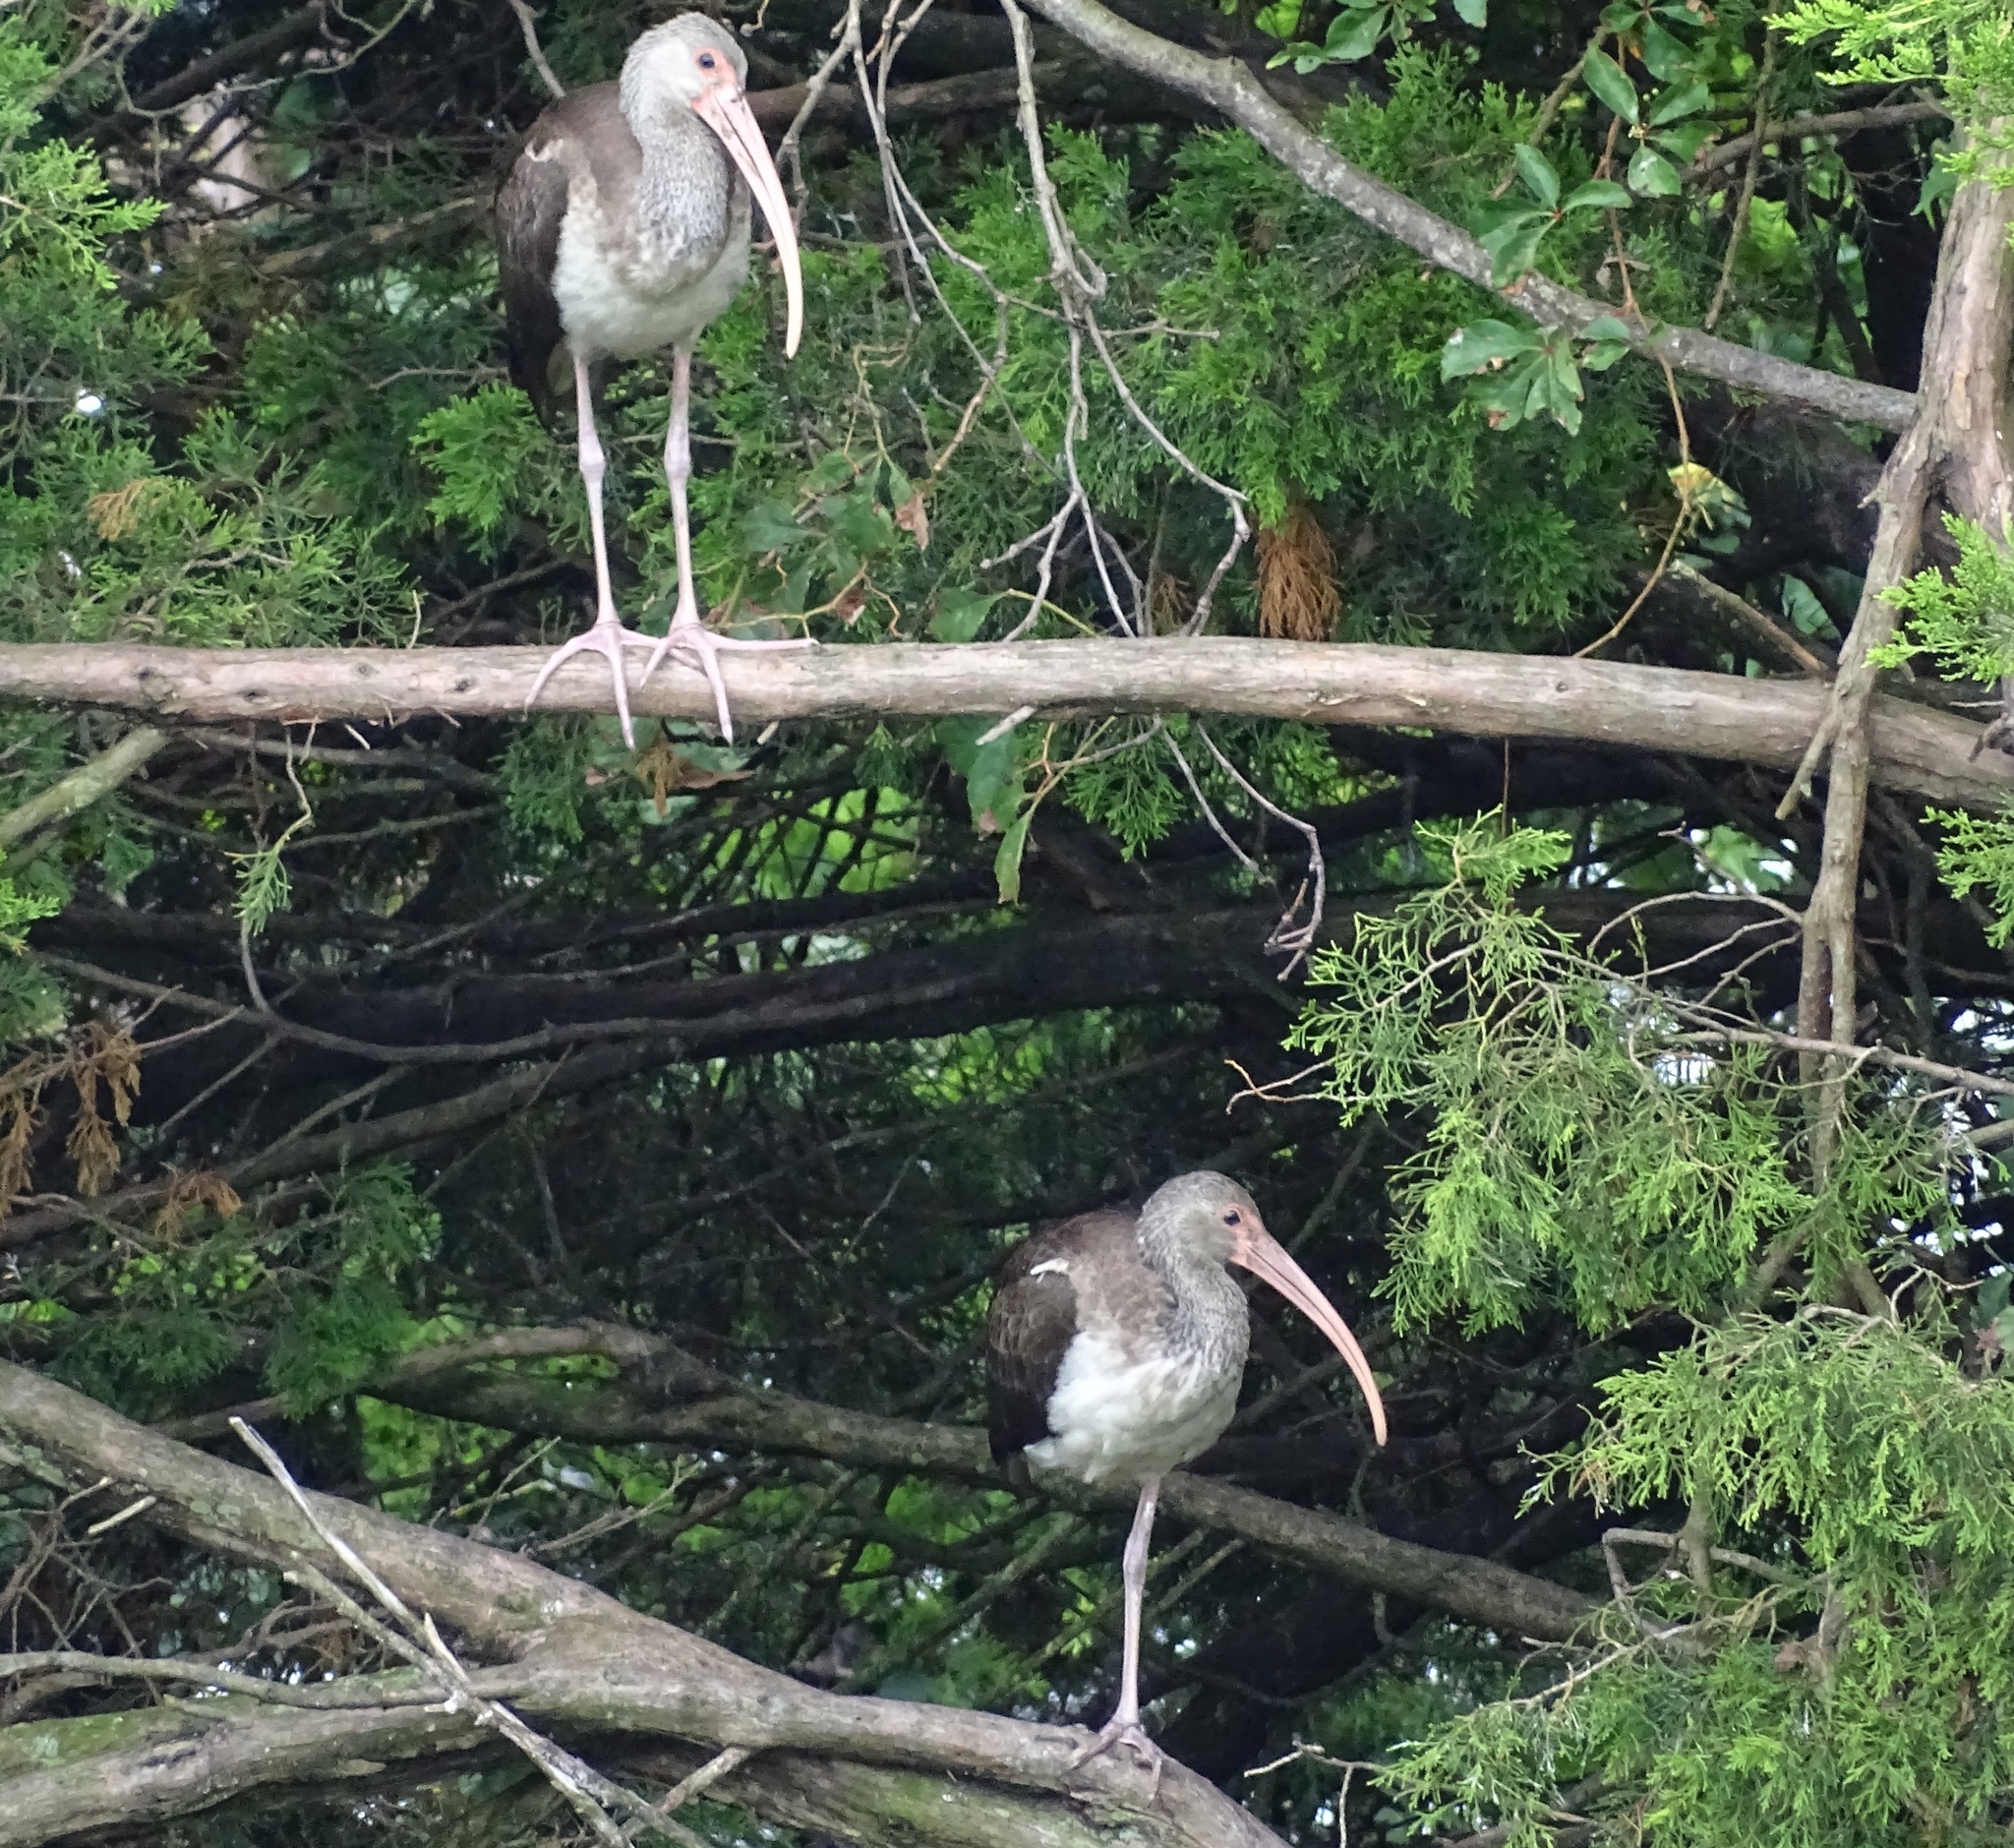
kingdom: Animalia
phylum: Chordata
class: Aves
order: Pelecaniformes
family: Threskiornithidae
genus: Eudocimus
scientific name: Eudocimus albus
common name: White ibis
